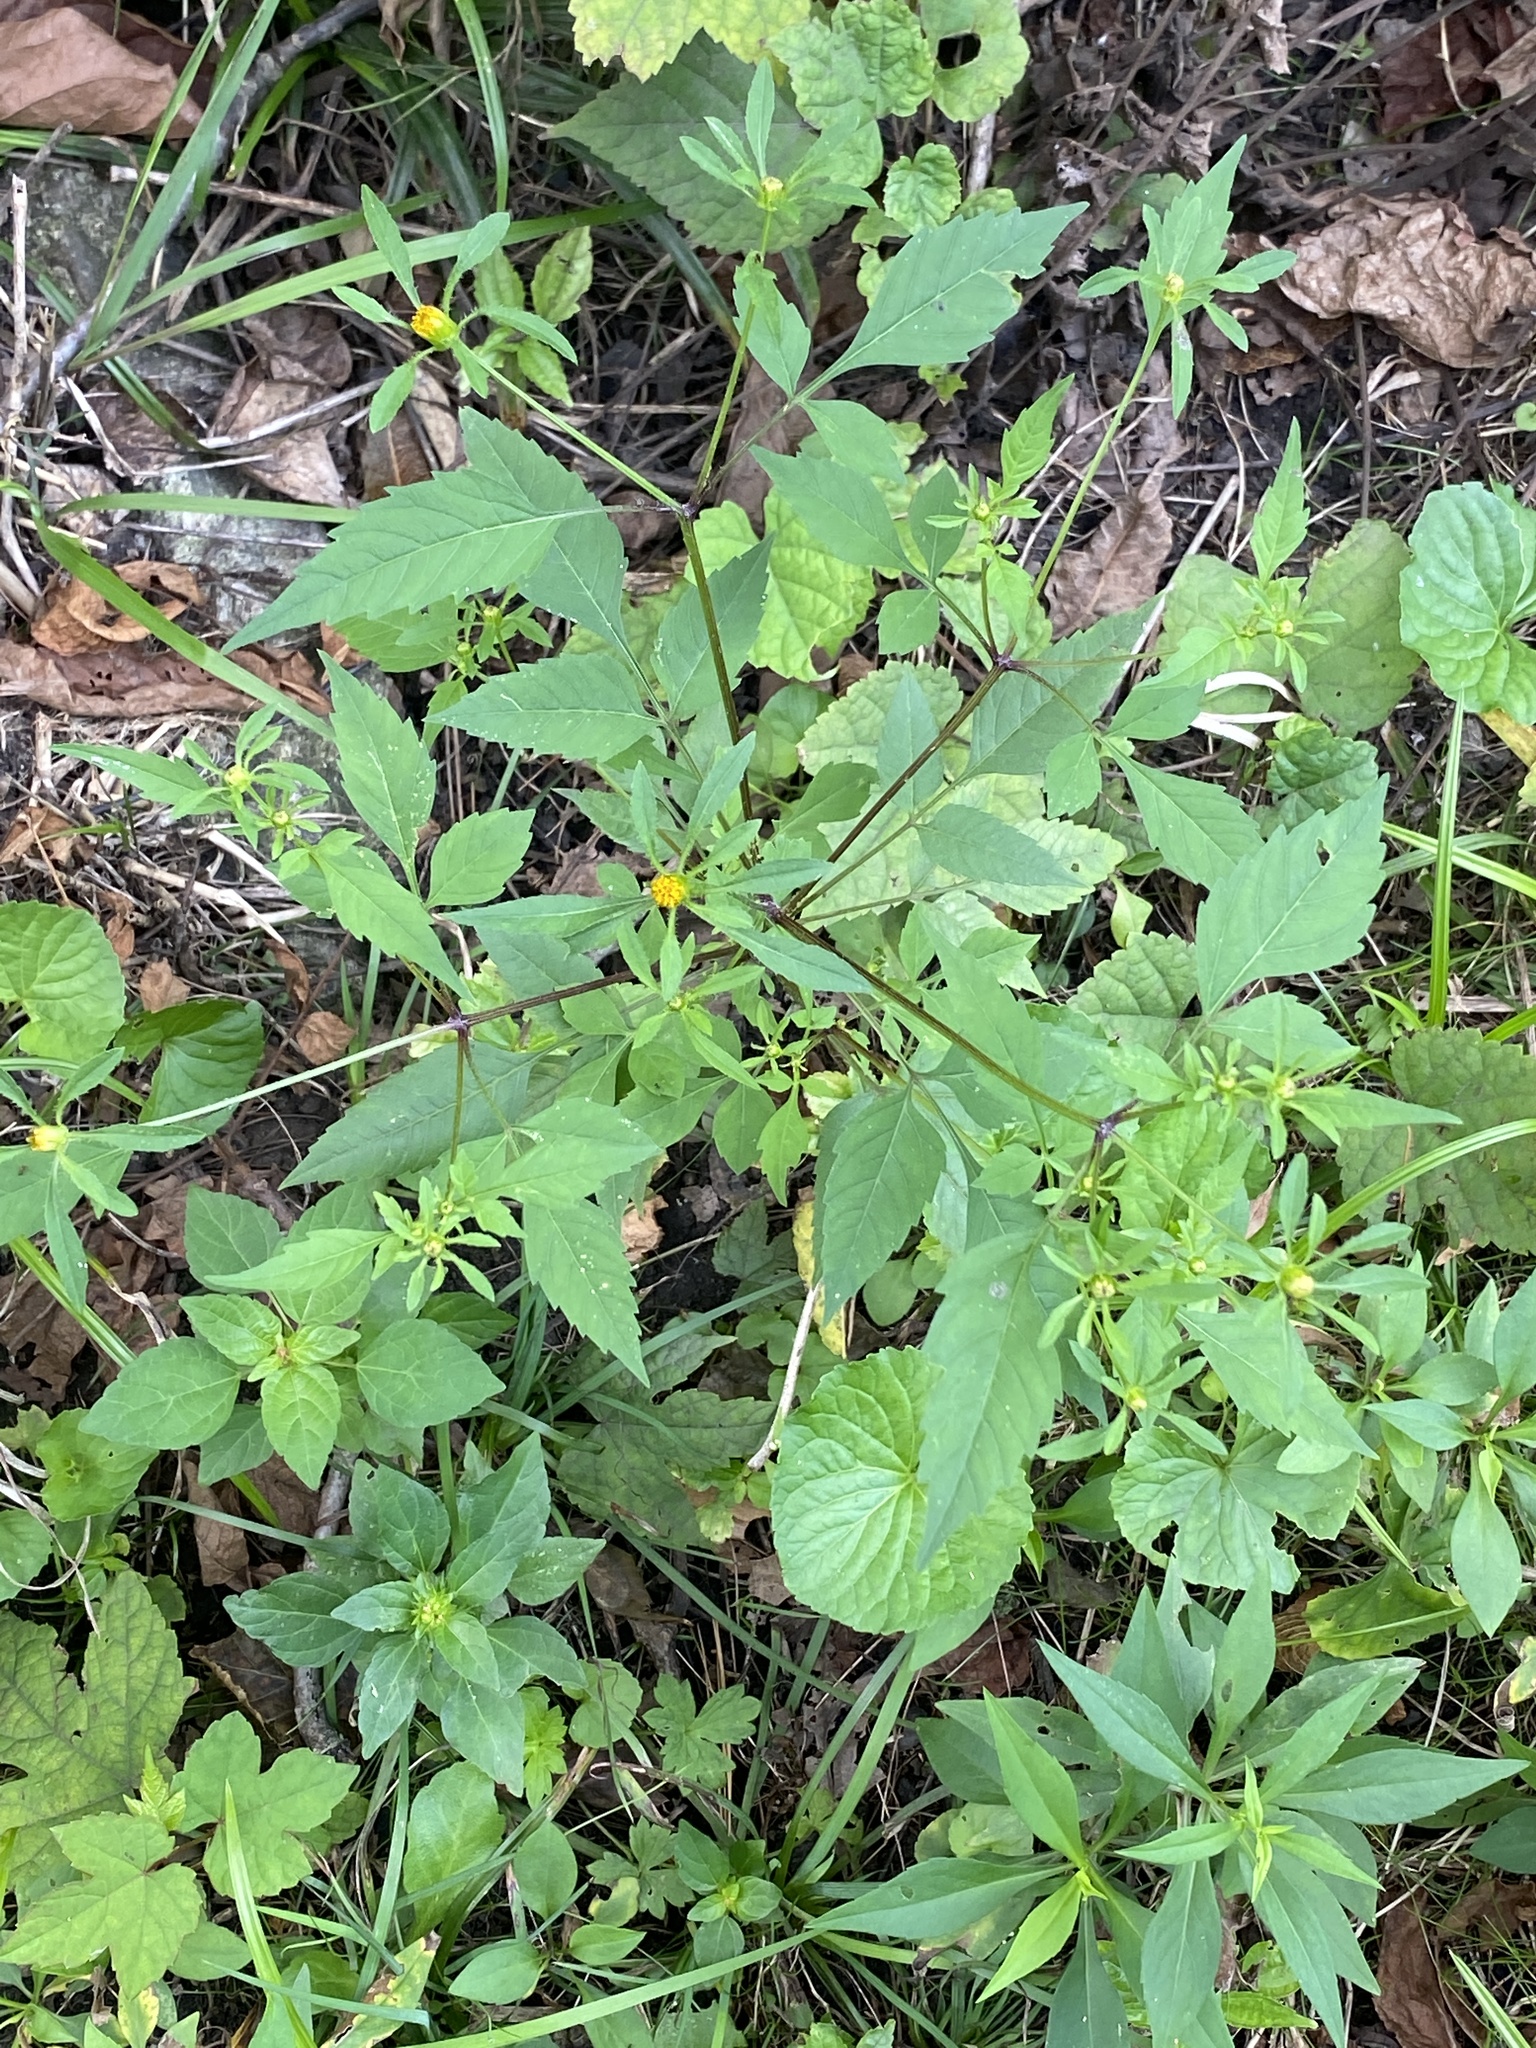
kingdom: Plantae
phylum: Tracheophyta
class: Magnoliopsida
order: Asterales
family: Asteraceae
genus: Bidens
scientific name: Bidens frondosa
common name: Beggarticks
